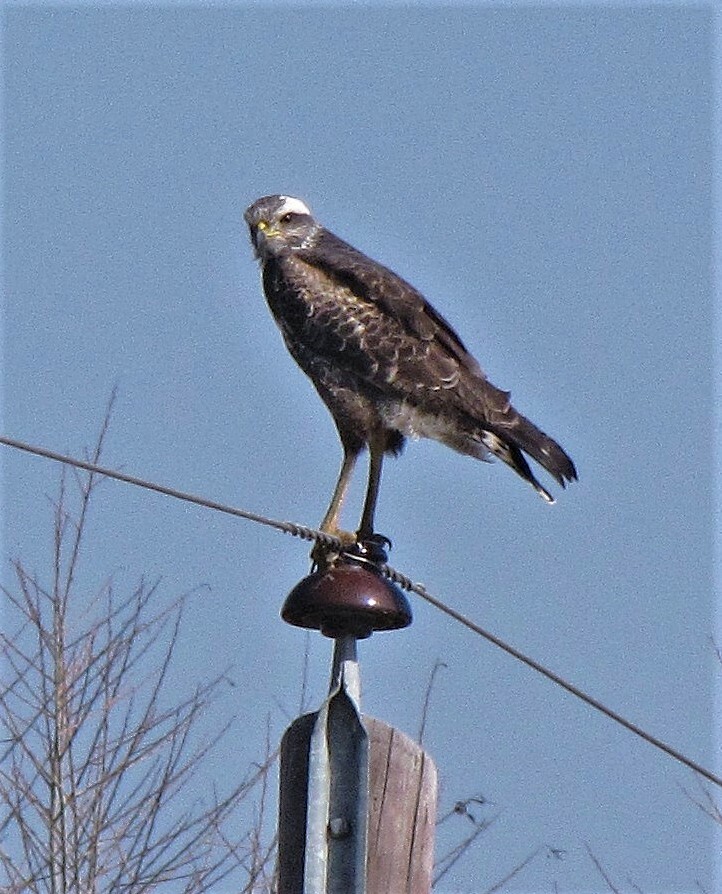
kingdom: Animalia
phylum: Chordata
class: Aves
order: Accipitriformes
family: Accipitridae
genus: Buteogallus
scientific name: Buteogallus meridionalis
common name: Savanna hawk
